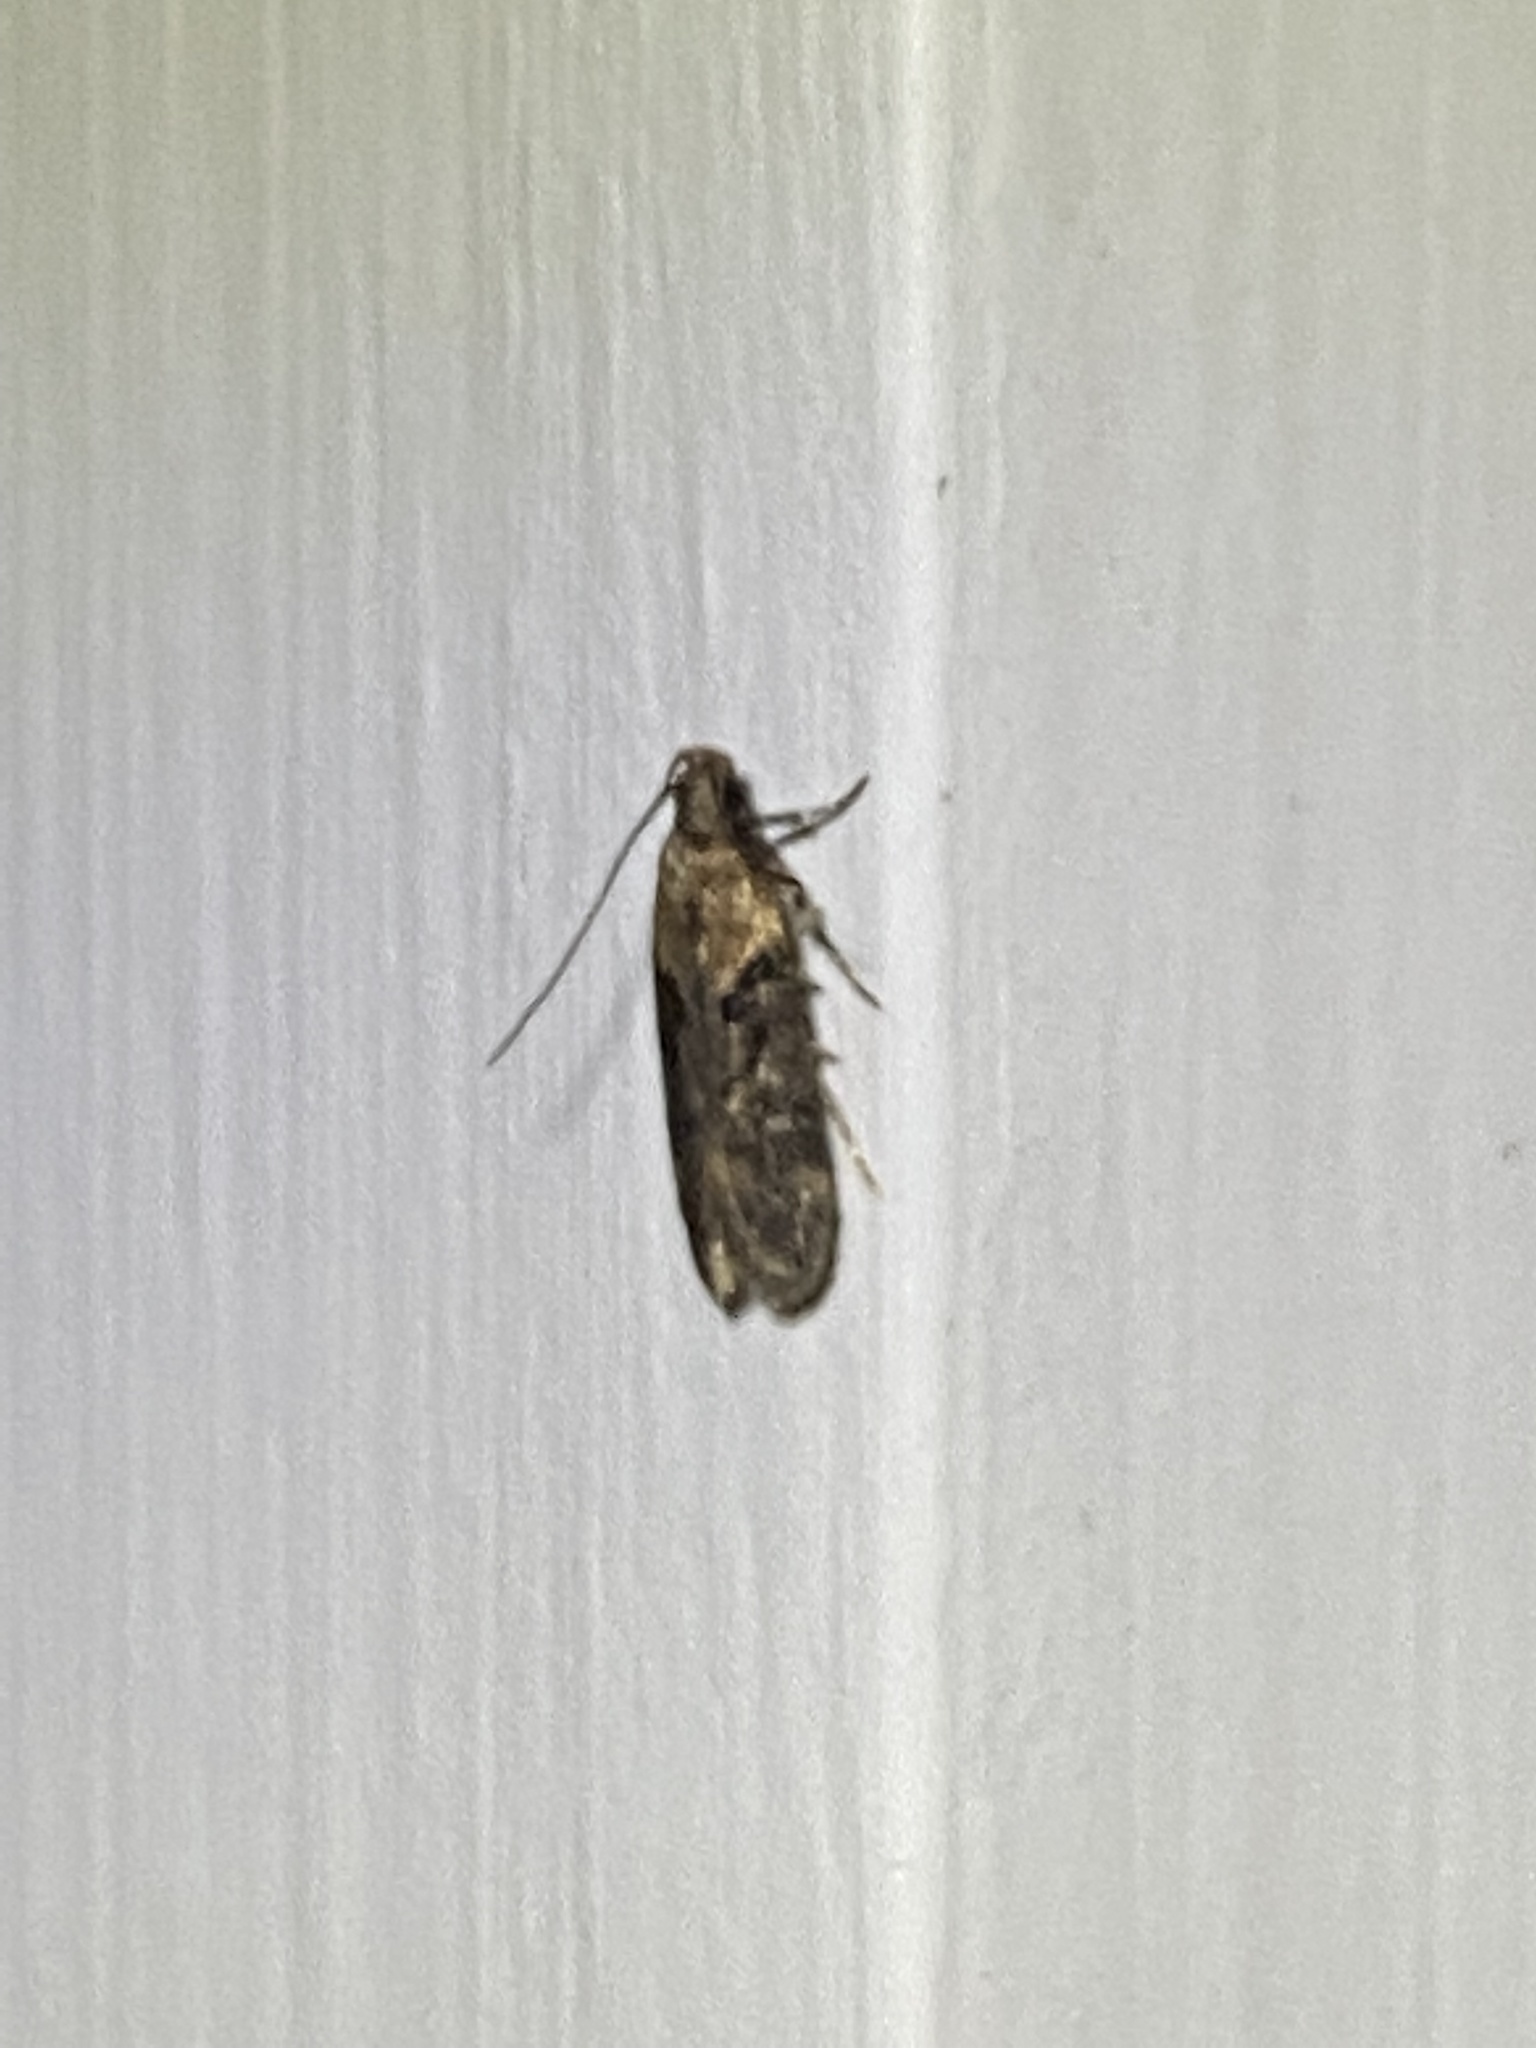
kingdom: Animalia
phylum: Arthropoda
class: Insecta
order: Lepidoptera
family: Gelechiidae
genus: Chionodes
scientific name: Chionodes mediofuscella
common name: Black-smudged chionodes moth
